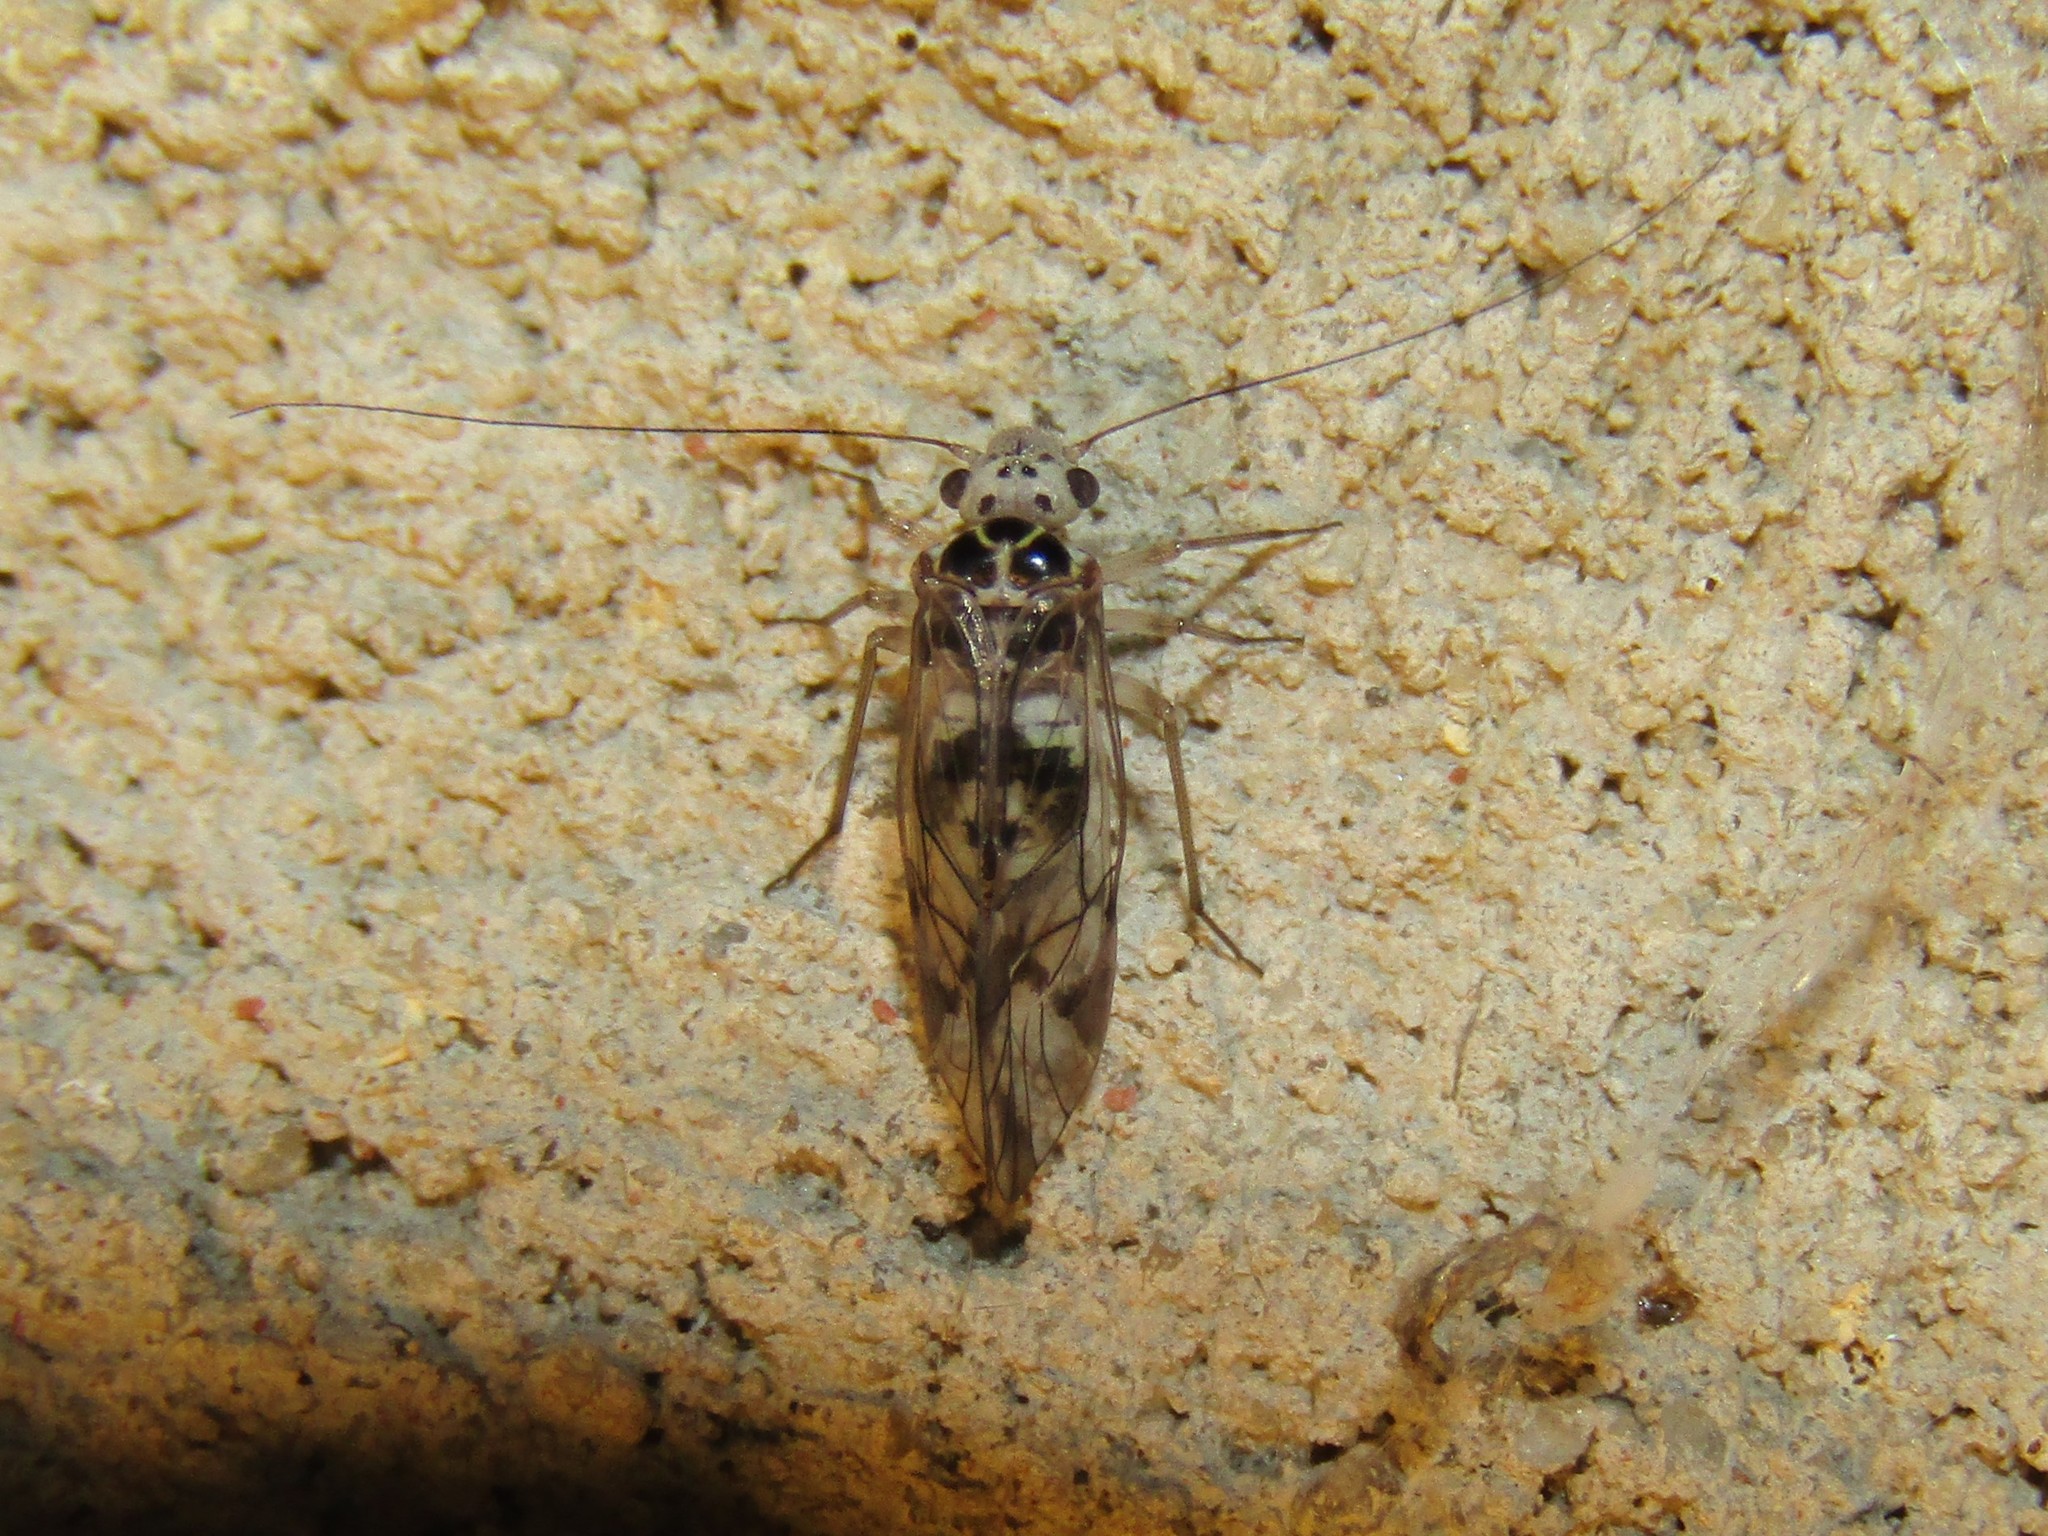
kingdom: Animalia
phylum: Arthropoda
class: Insecta
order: Psocodea
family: Psocidae
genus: Metylophorus
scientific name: Metylophorus novaescotiae
